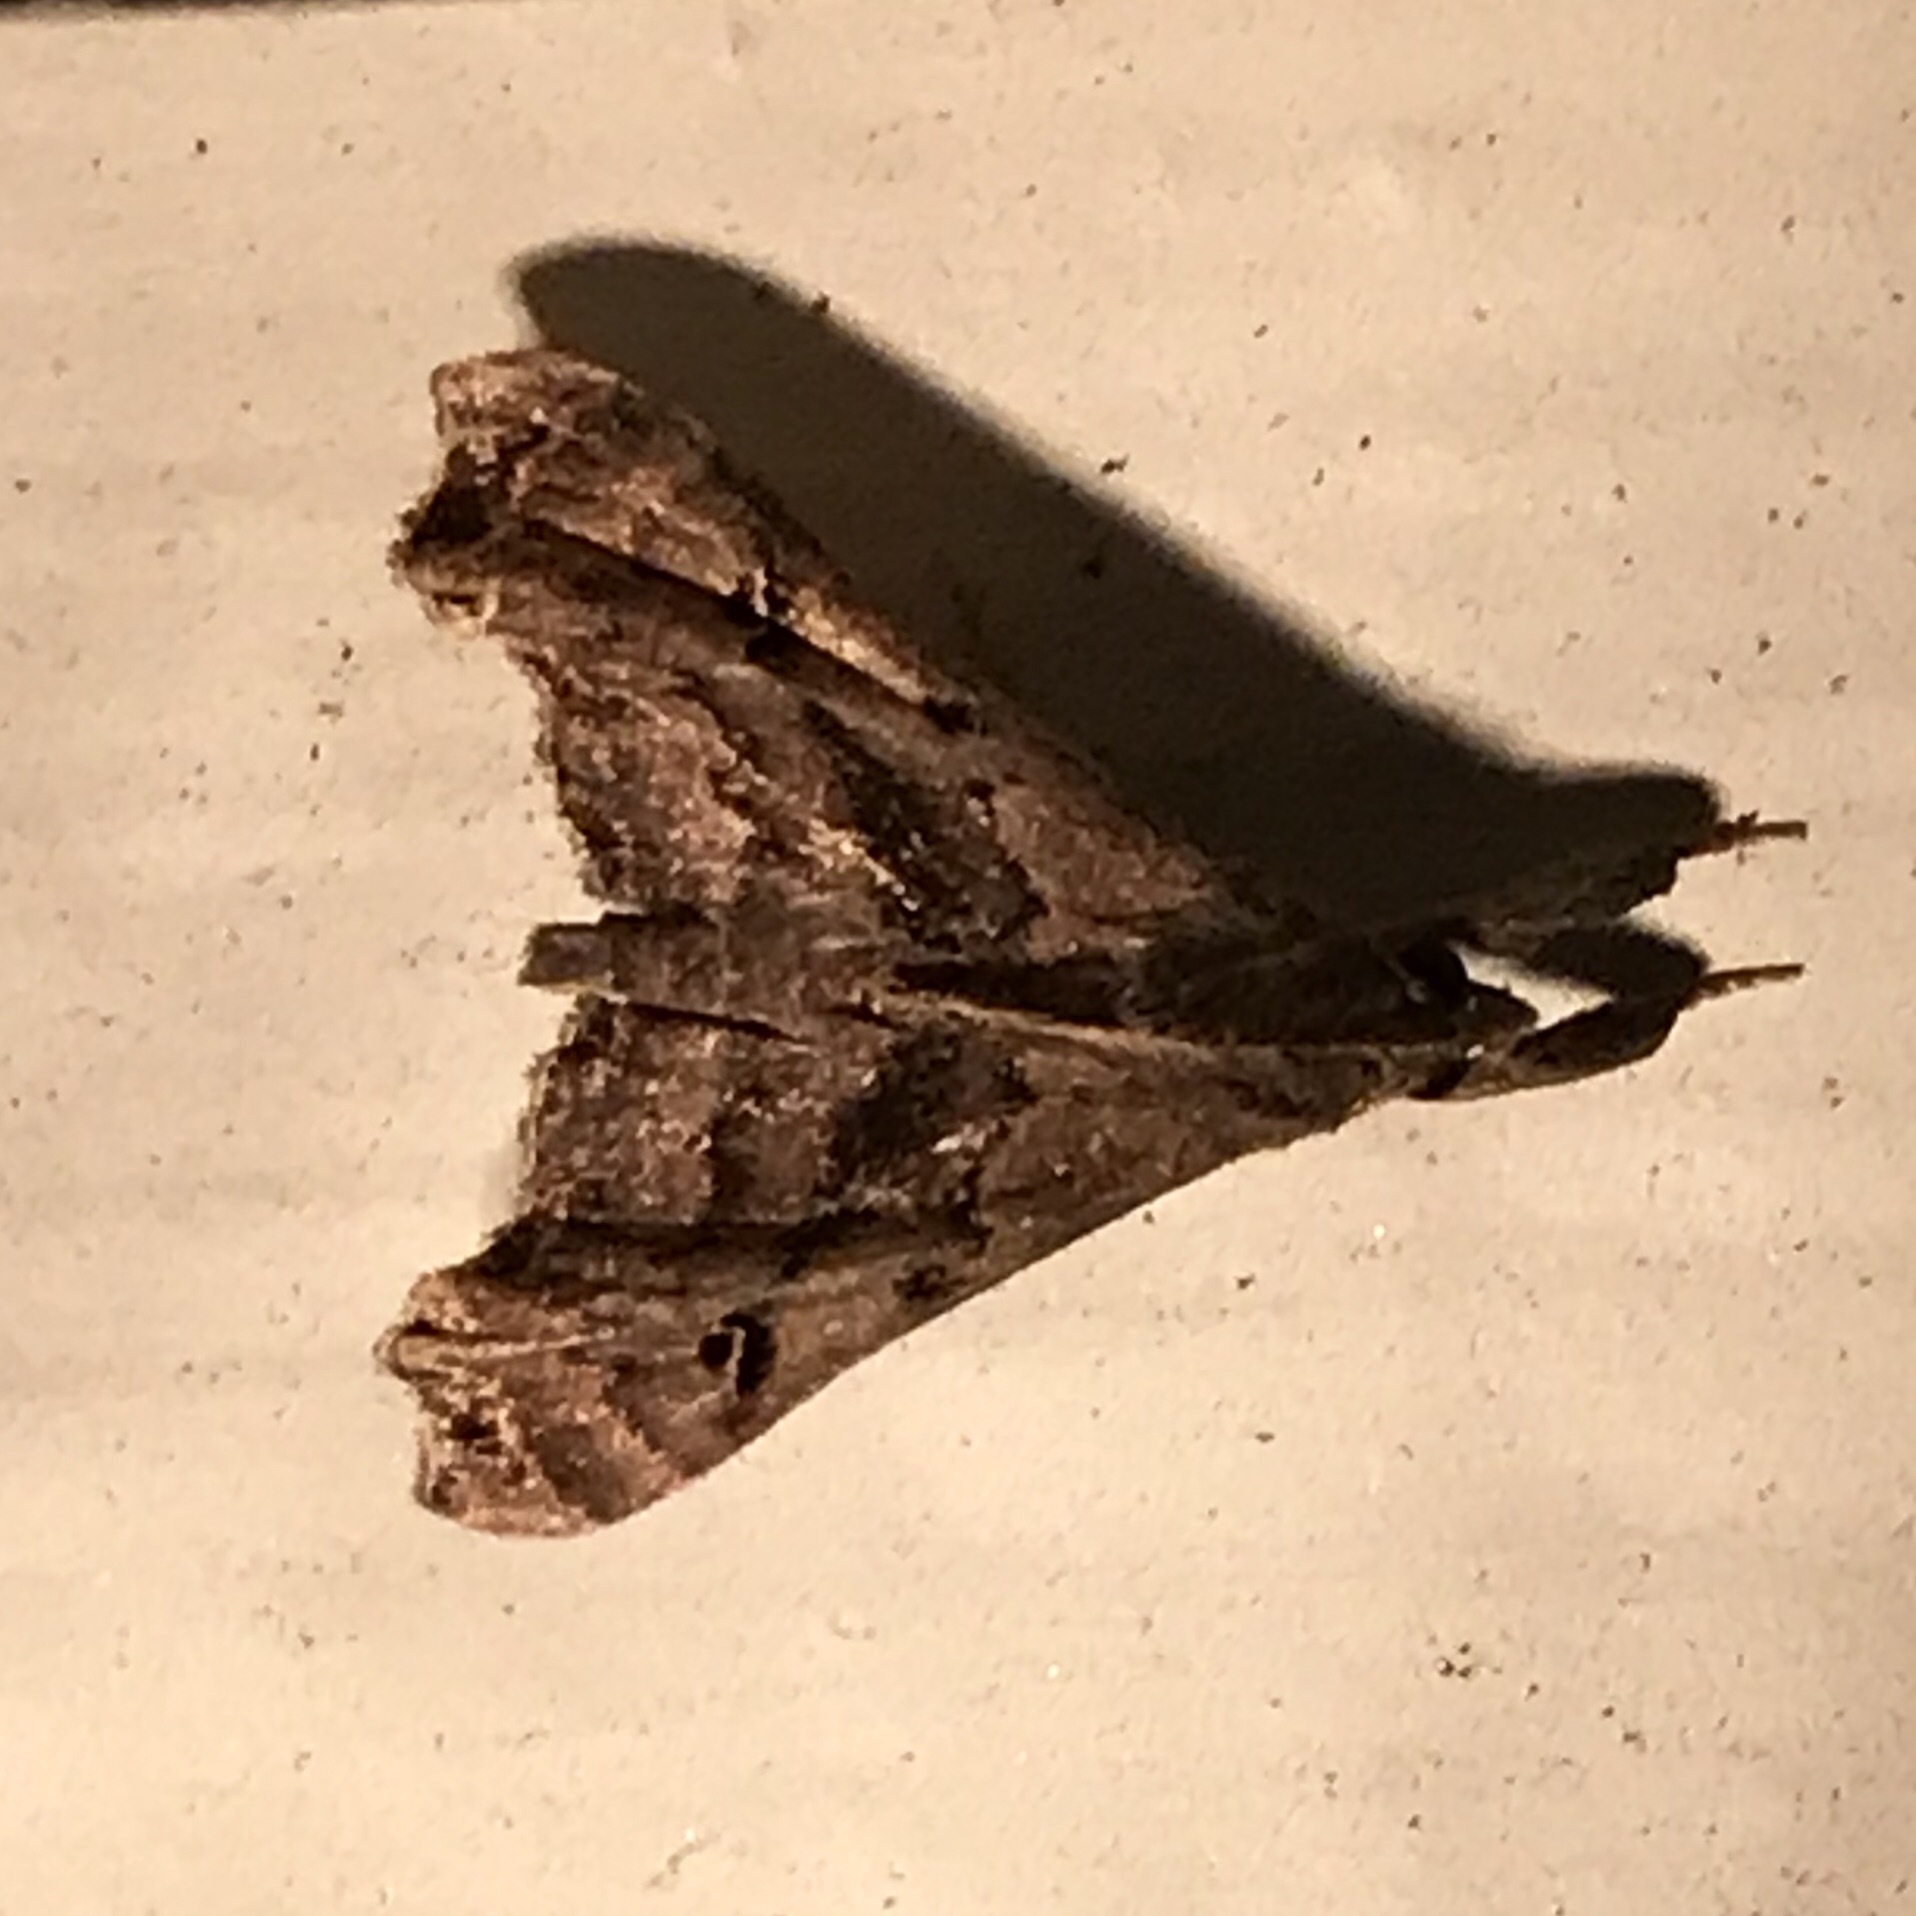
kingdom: Animalia
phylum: Arthropoda
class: Insecta
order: Lepidoptera
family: Erebidae
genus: Palthis
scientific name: Palthis asopialis
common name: Faint-spotted palthis moth
